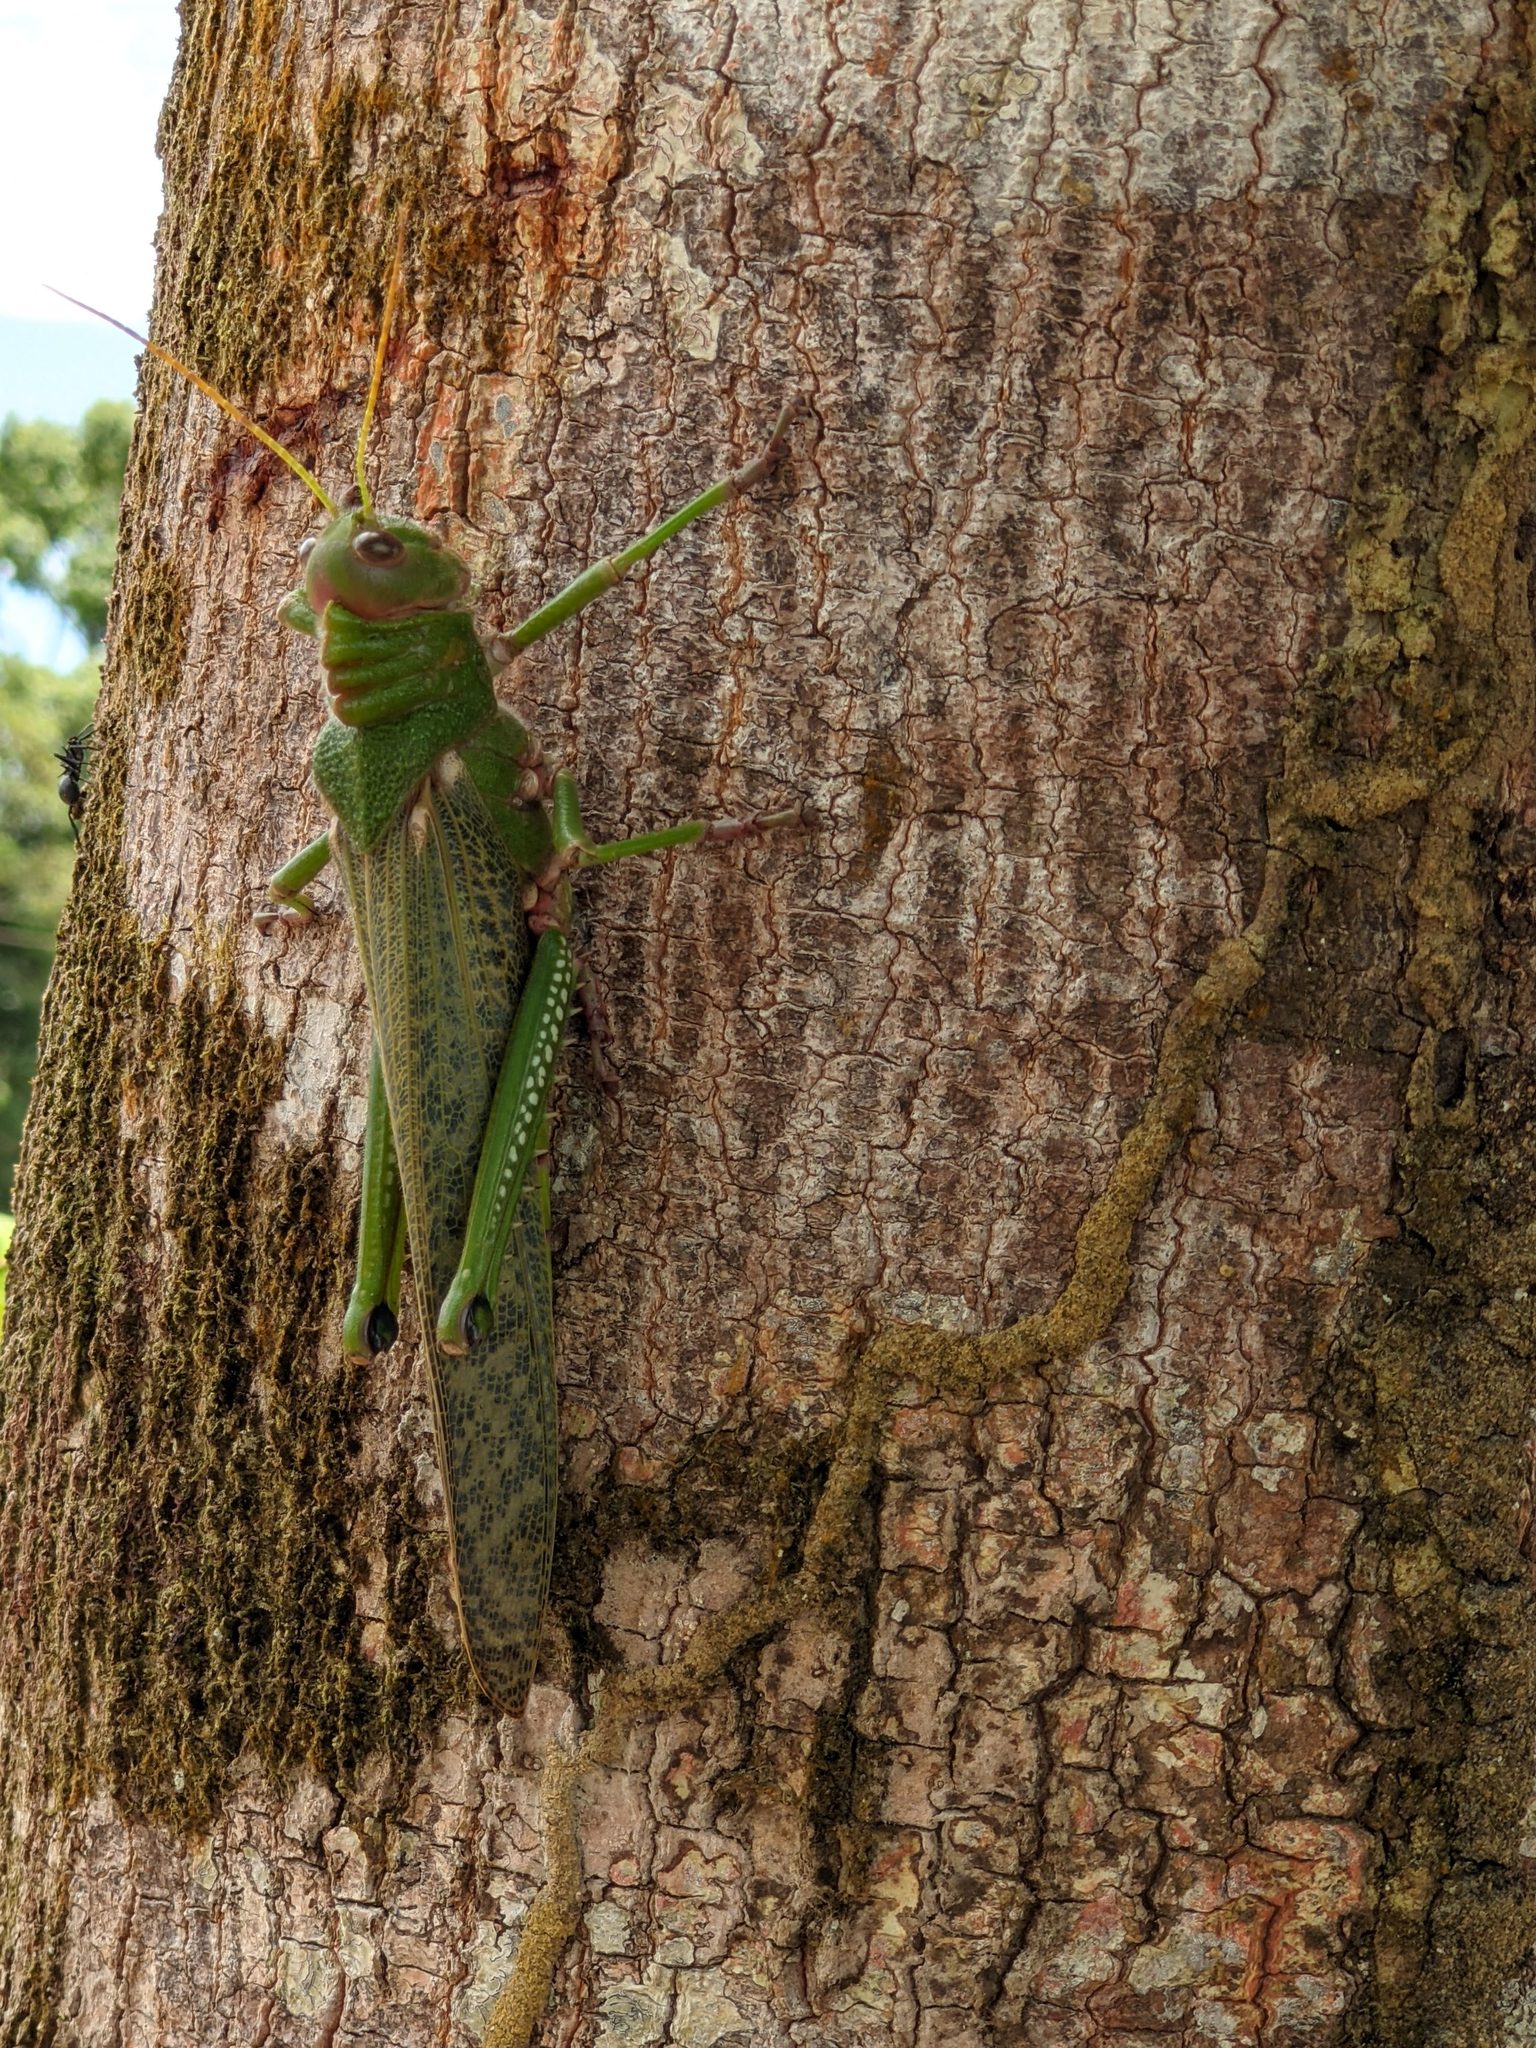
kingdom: Animalia
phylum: Arthropoda
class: Insecta
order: Orthoptera
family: Romaleidae
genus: Tropidacris
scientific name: Tropidacris collaris
